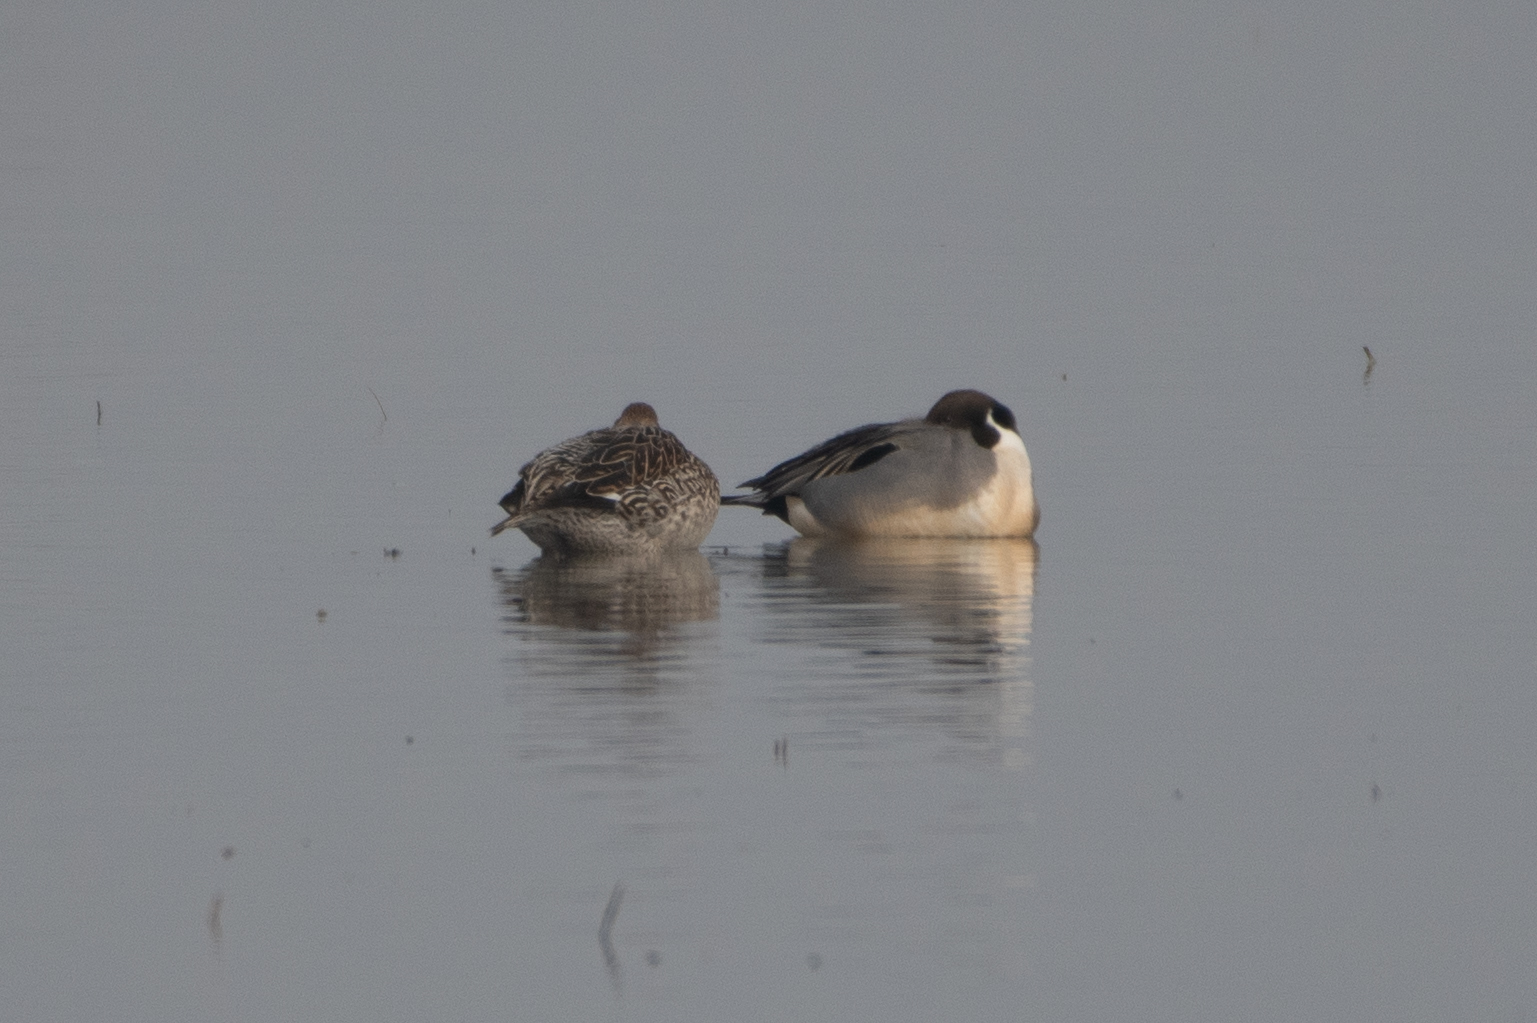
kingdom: Animalia
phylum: Chordata
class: Aves
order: Anseriformes
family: Anatidae
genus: Anas
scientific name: Anas acuta
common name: Northern pintail
